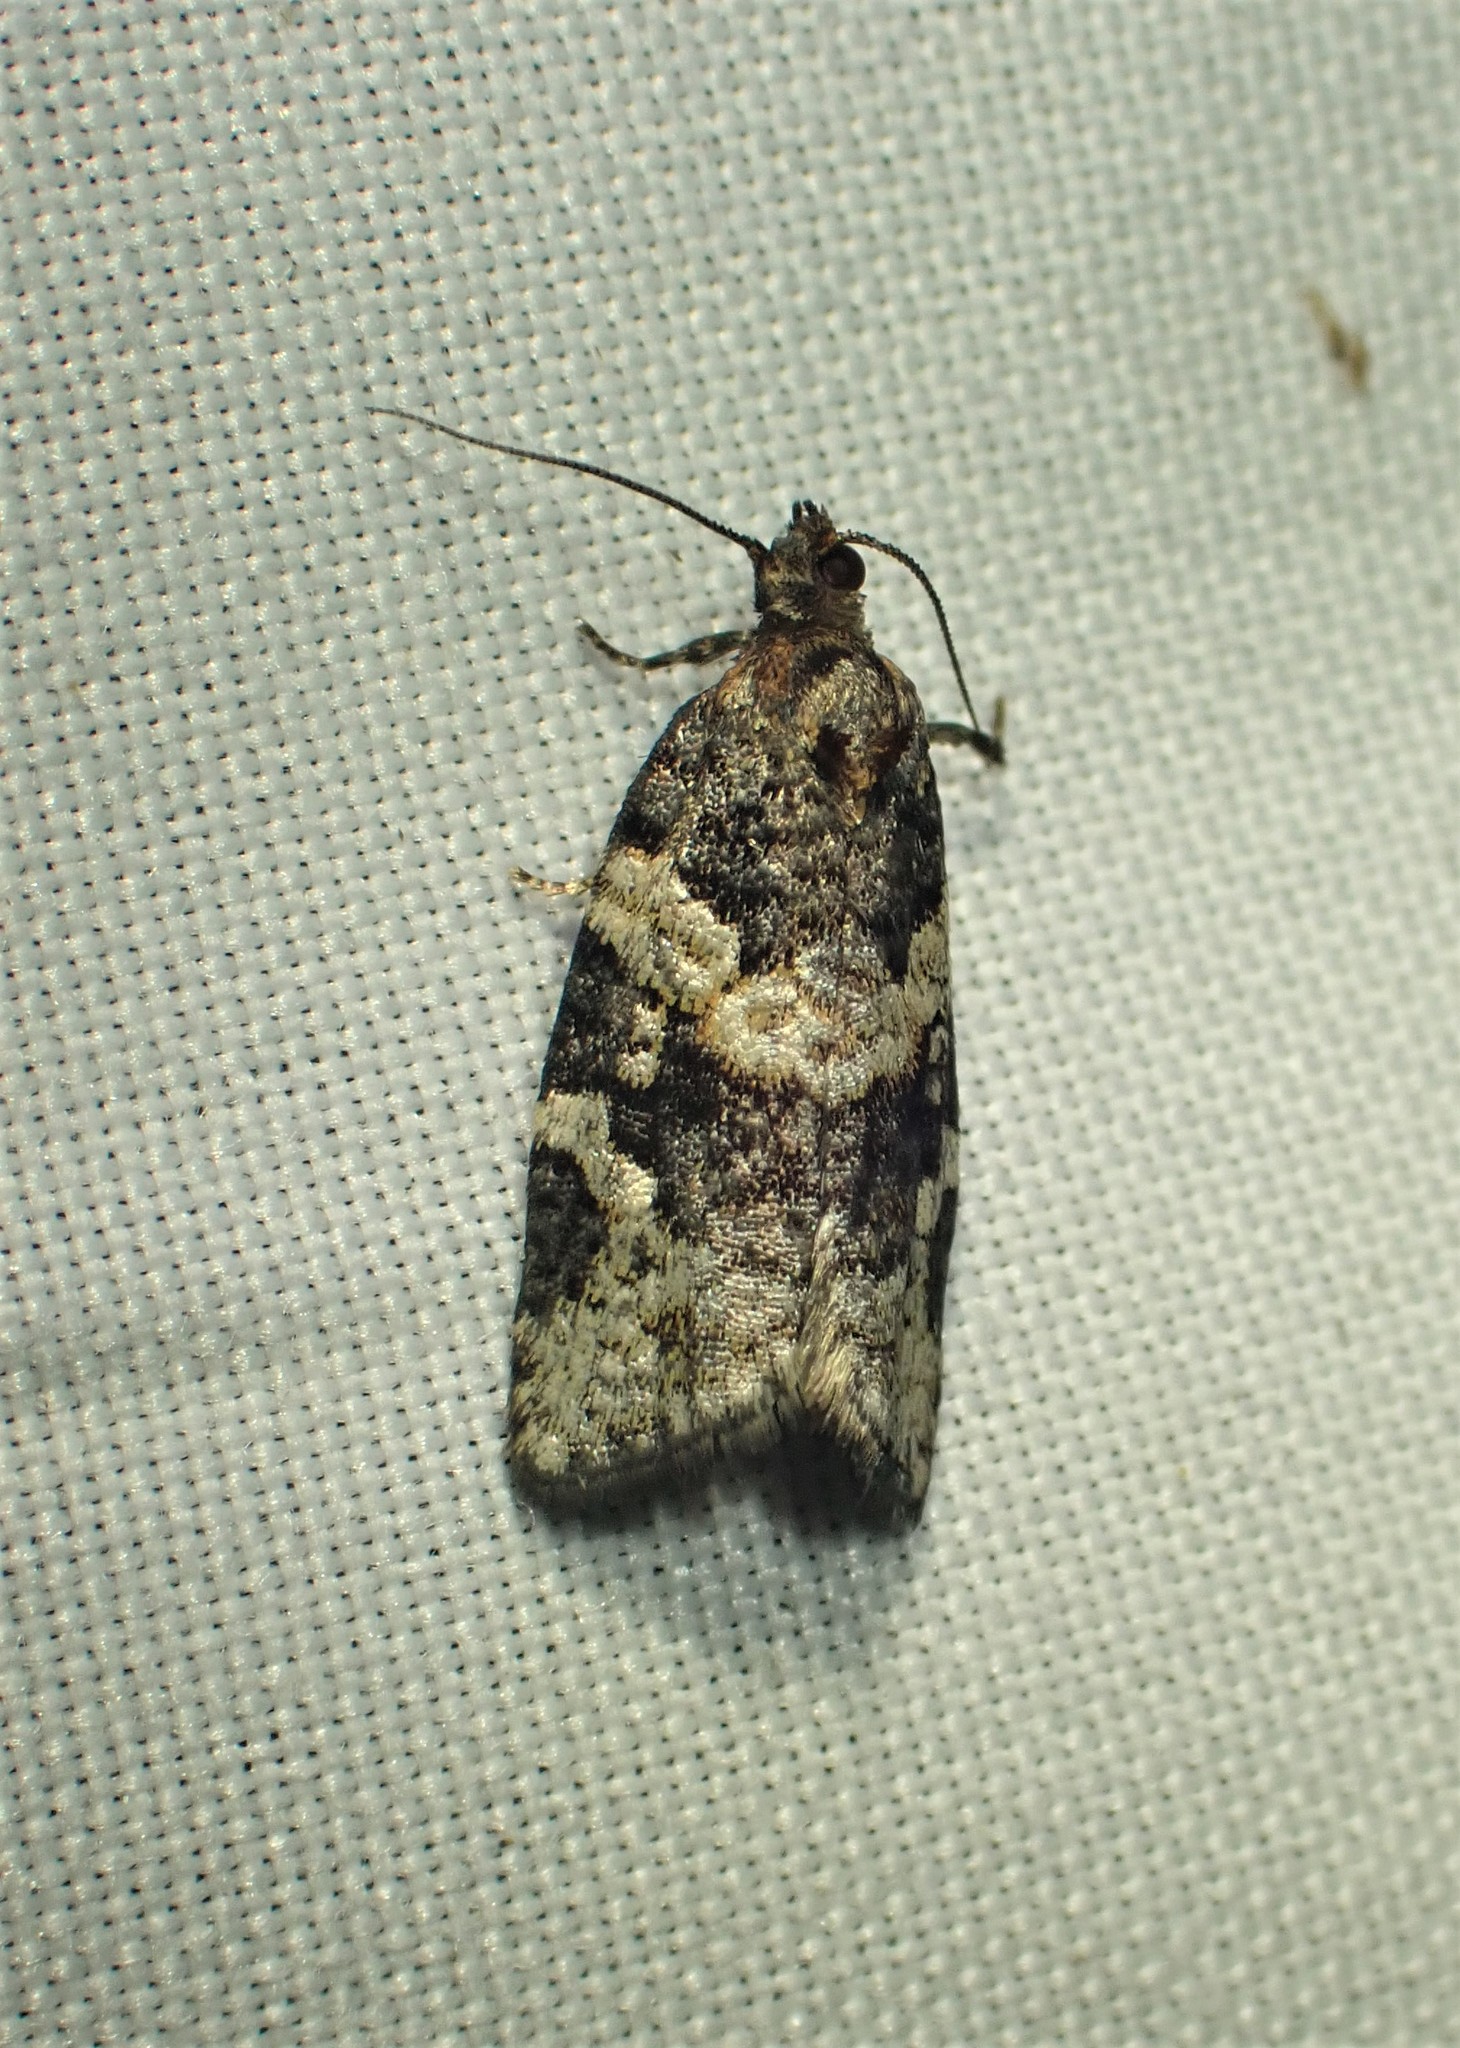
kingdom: Animalia
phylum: Arthropoda
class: Insecta
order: Lepidoptera
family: Tortricidae
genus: Argyrotaenia
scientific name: Argyrotaenia occultana
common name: Fall spruce needle moth
